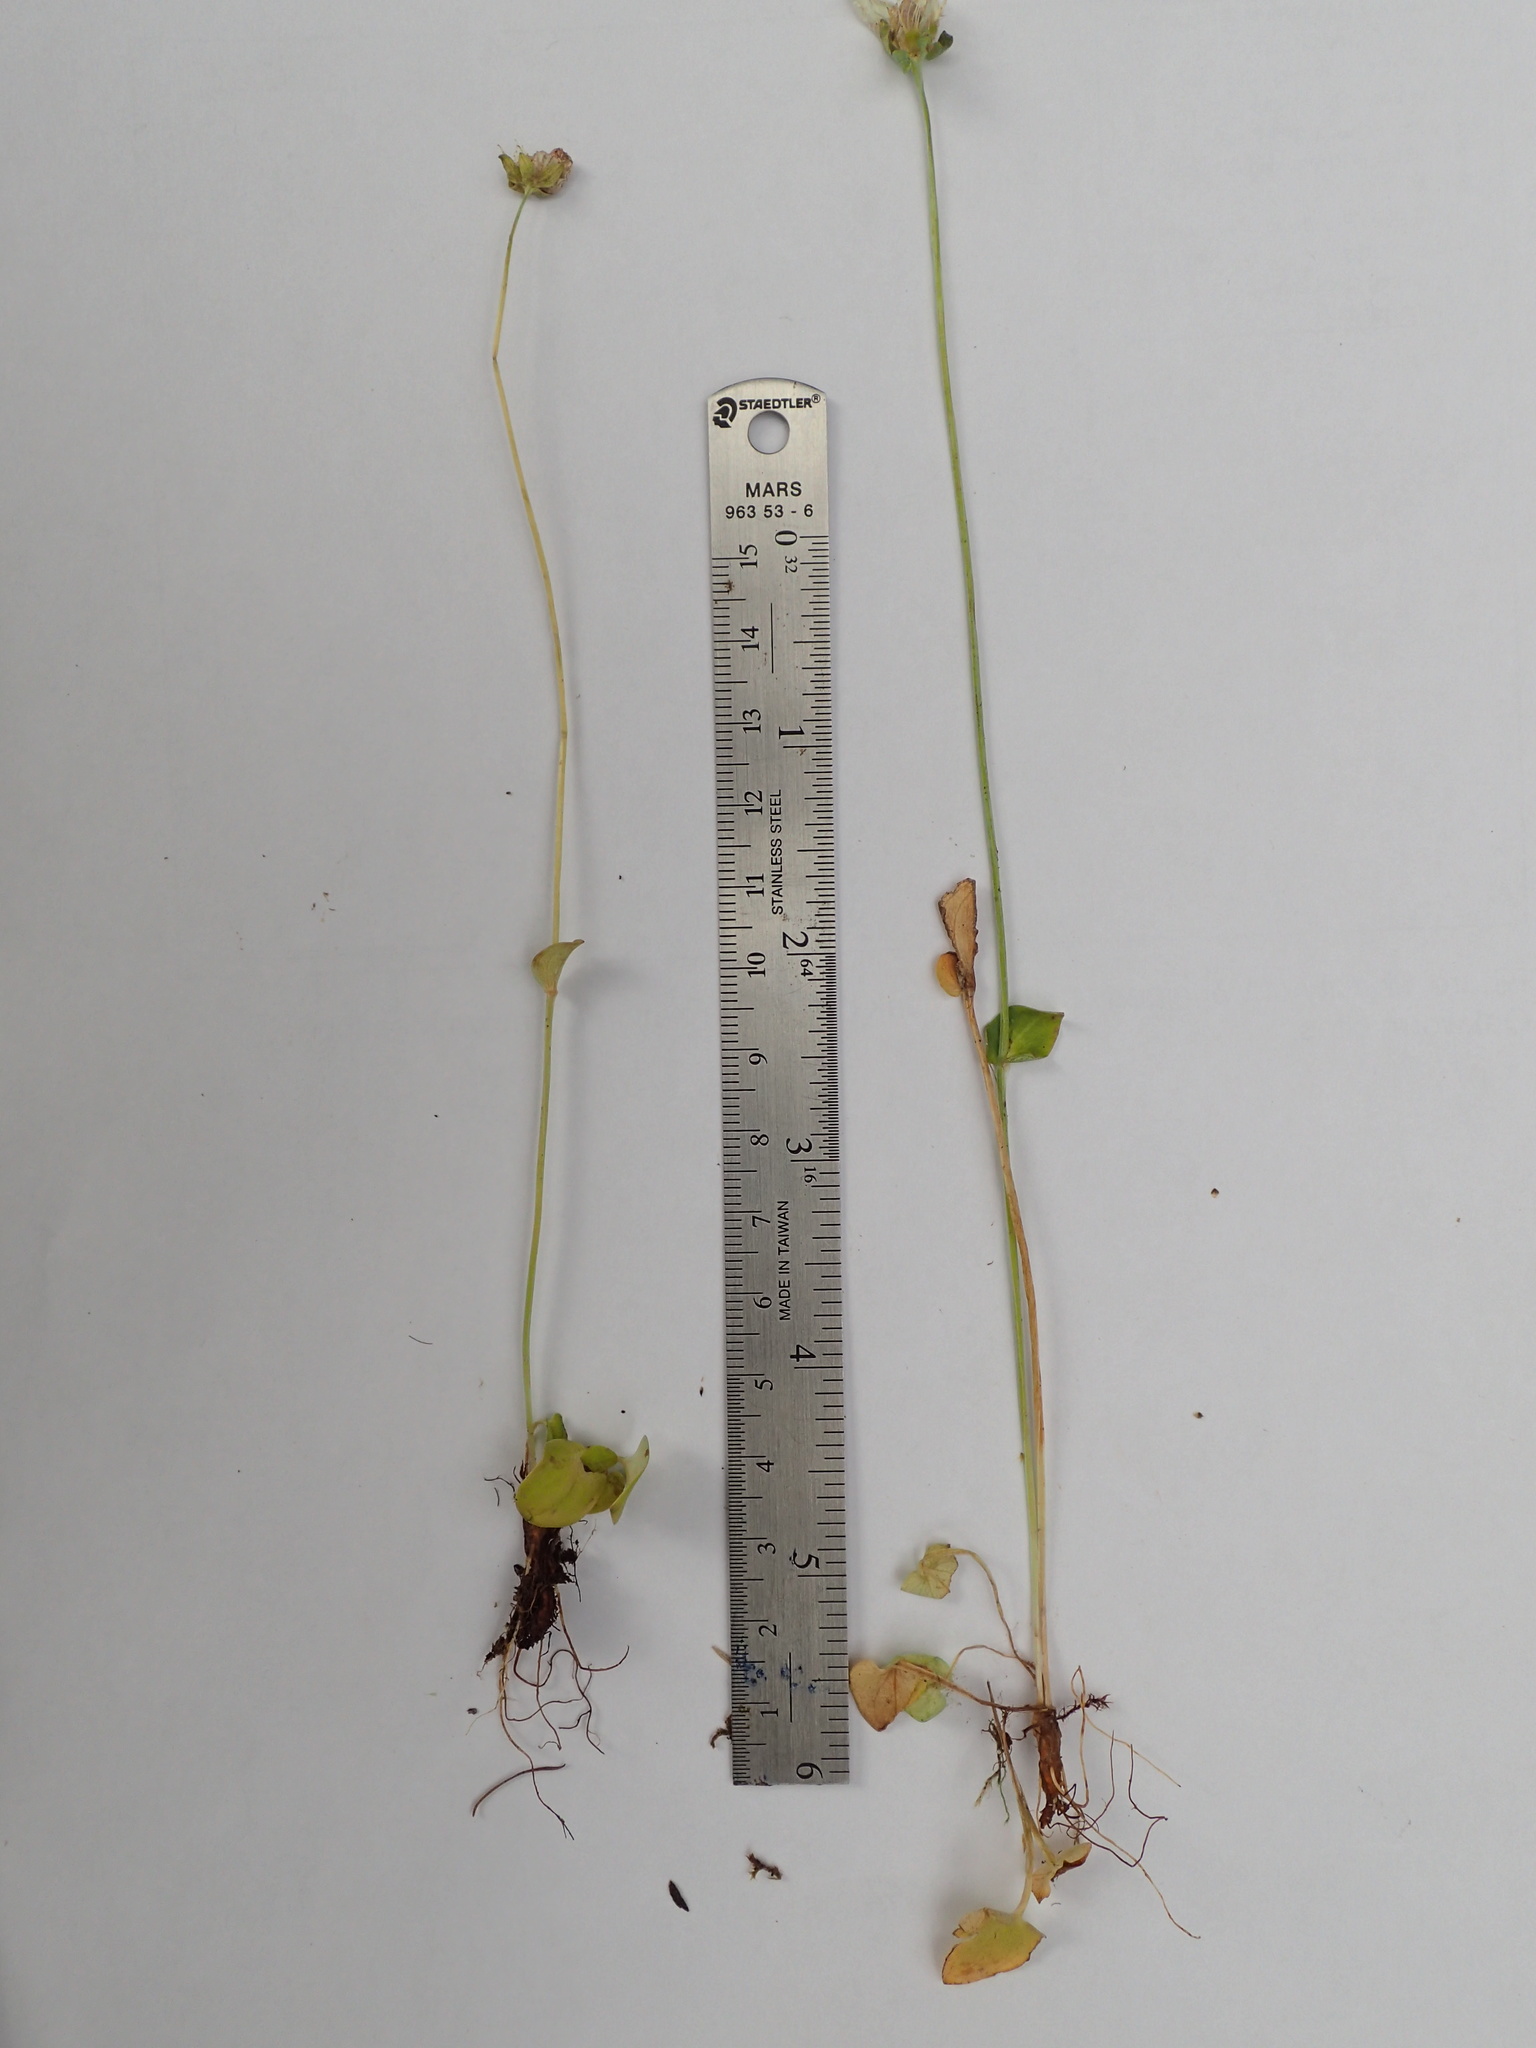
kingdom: Plantae
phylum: Tracheophyta
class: Magnoliopsida
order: Celastrales
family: Parnassiaceae
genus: Parnassia
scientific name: Parnassia palustris
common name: Grass-of-parnassus
